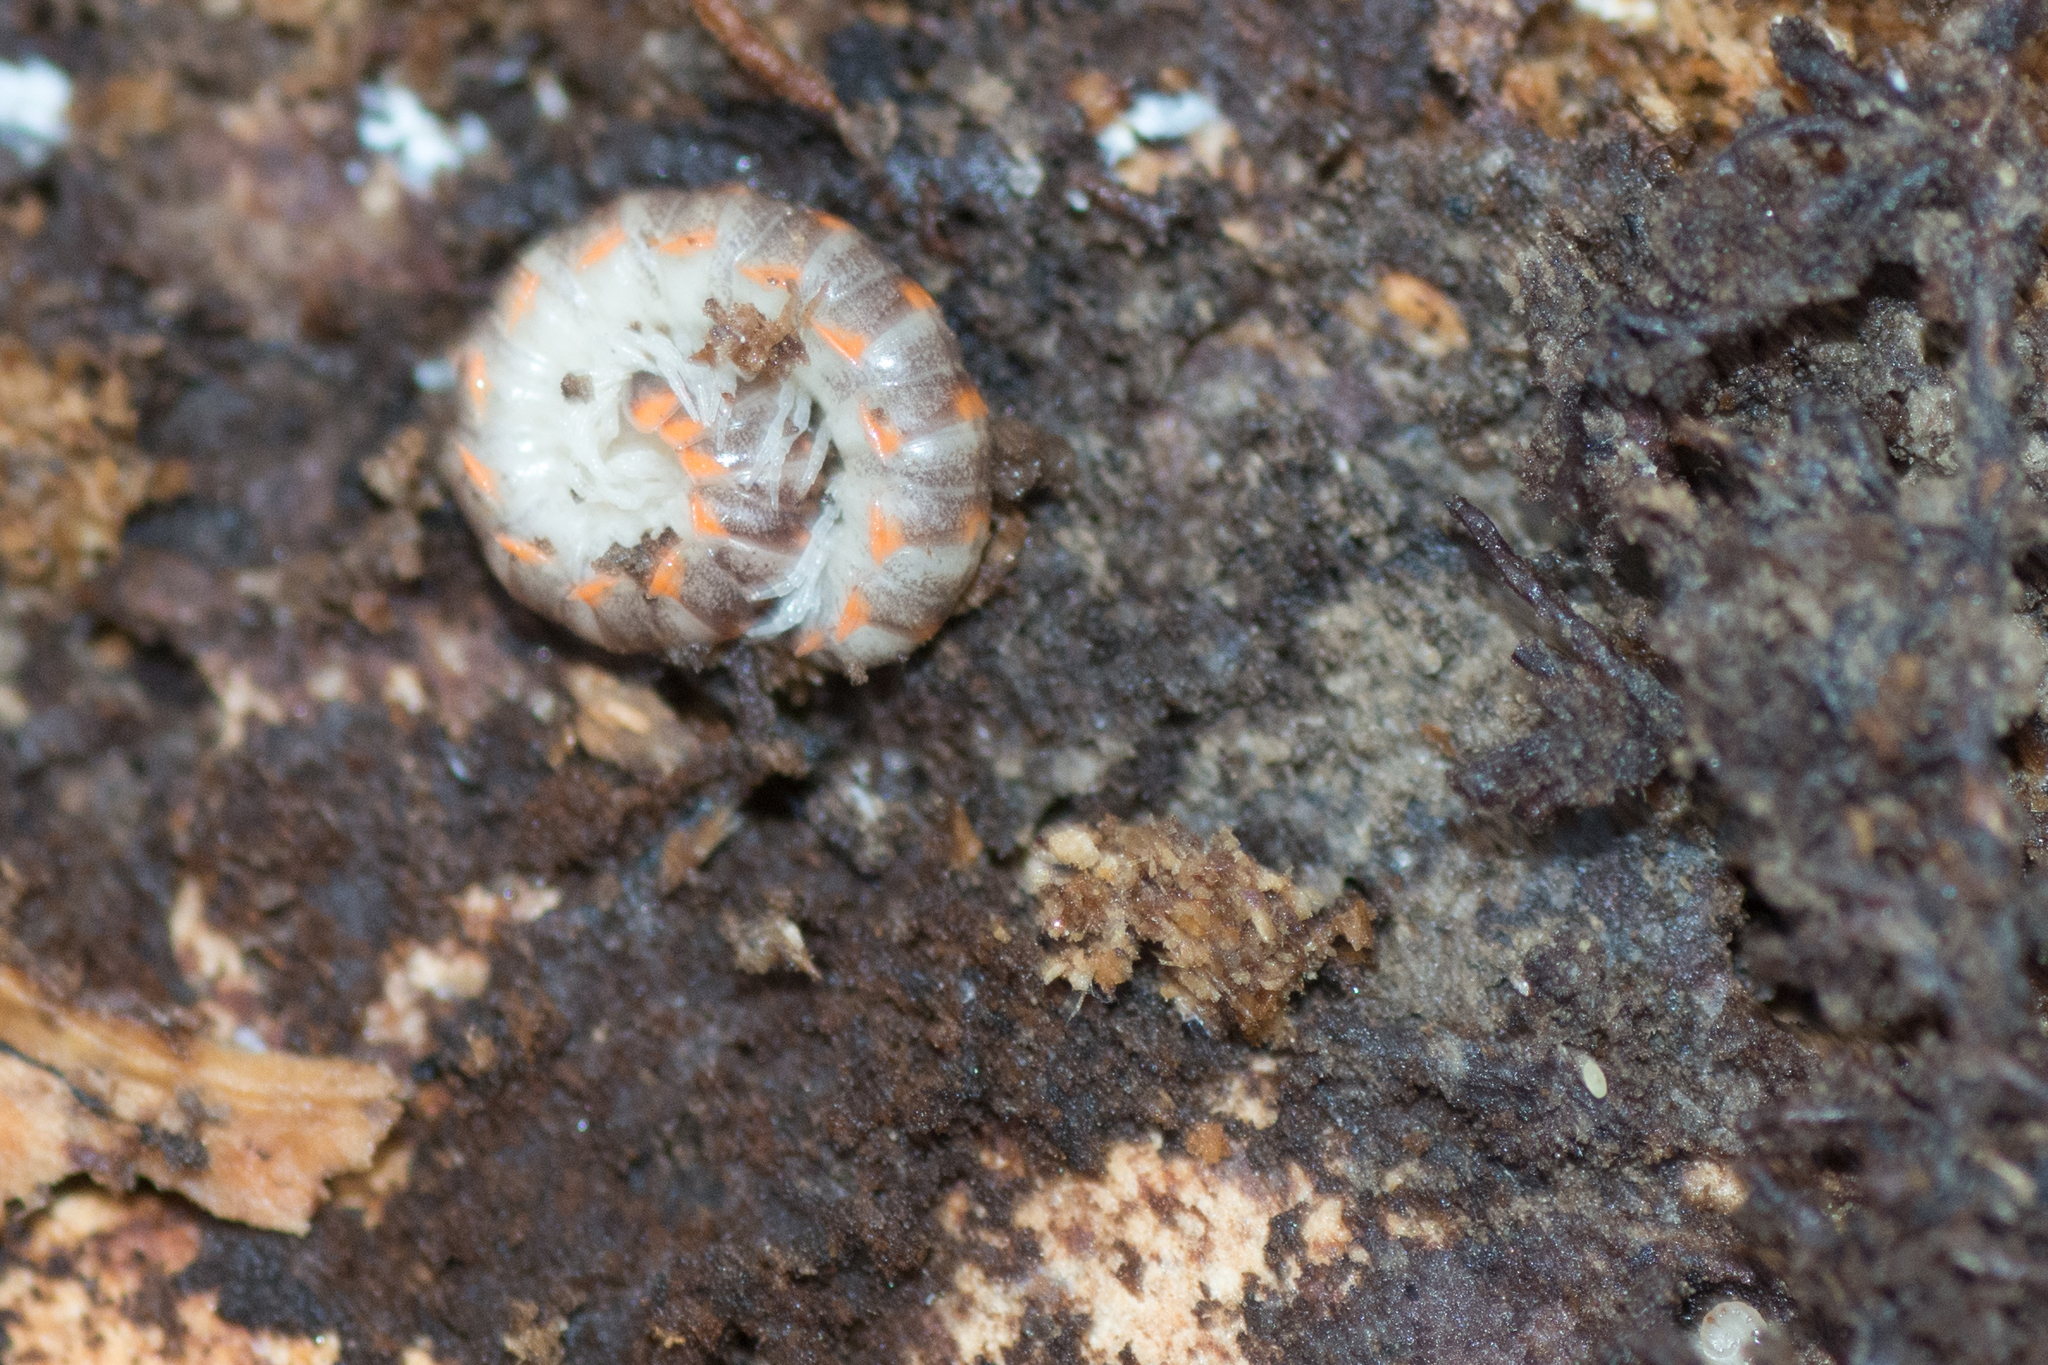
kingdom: Animalia
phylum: Arthropoda
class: Diplopoda
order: Polydesmida
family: Xystodesmidae
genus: Euryurus
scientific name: Euryurus leachii
